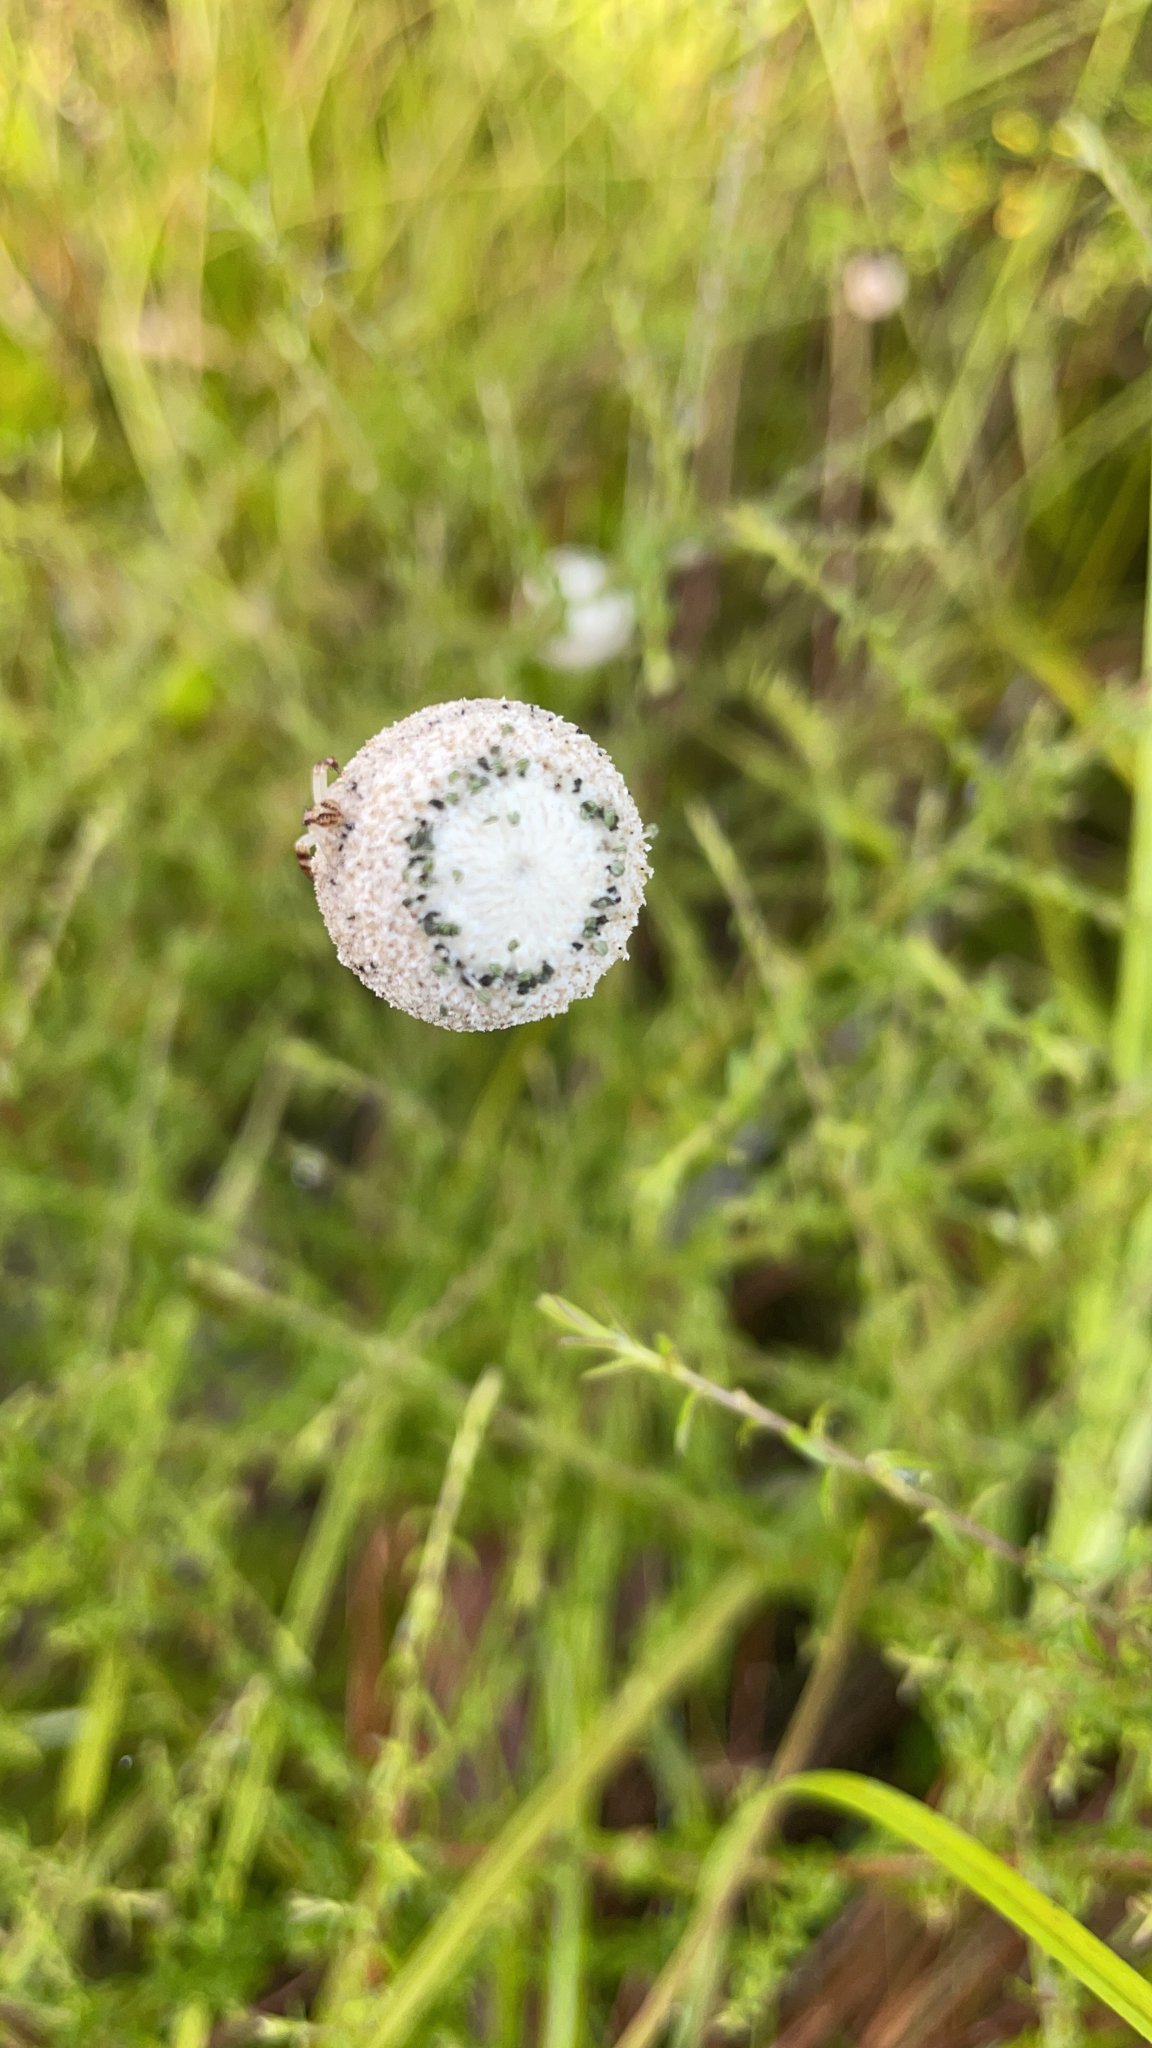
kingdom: Plantae
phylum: Tracheophyta
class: Liliopsida
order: Poales
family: Eriocaulaceae
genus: Eriocaulon
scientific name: Eriocaulon decangulare
